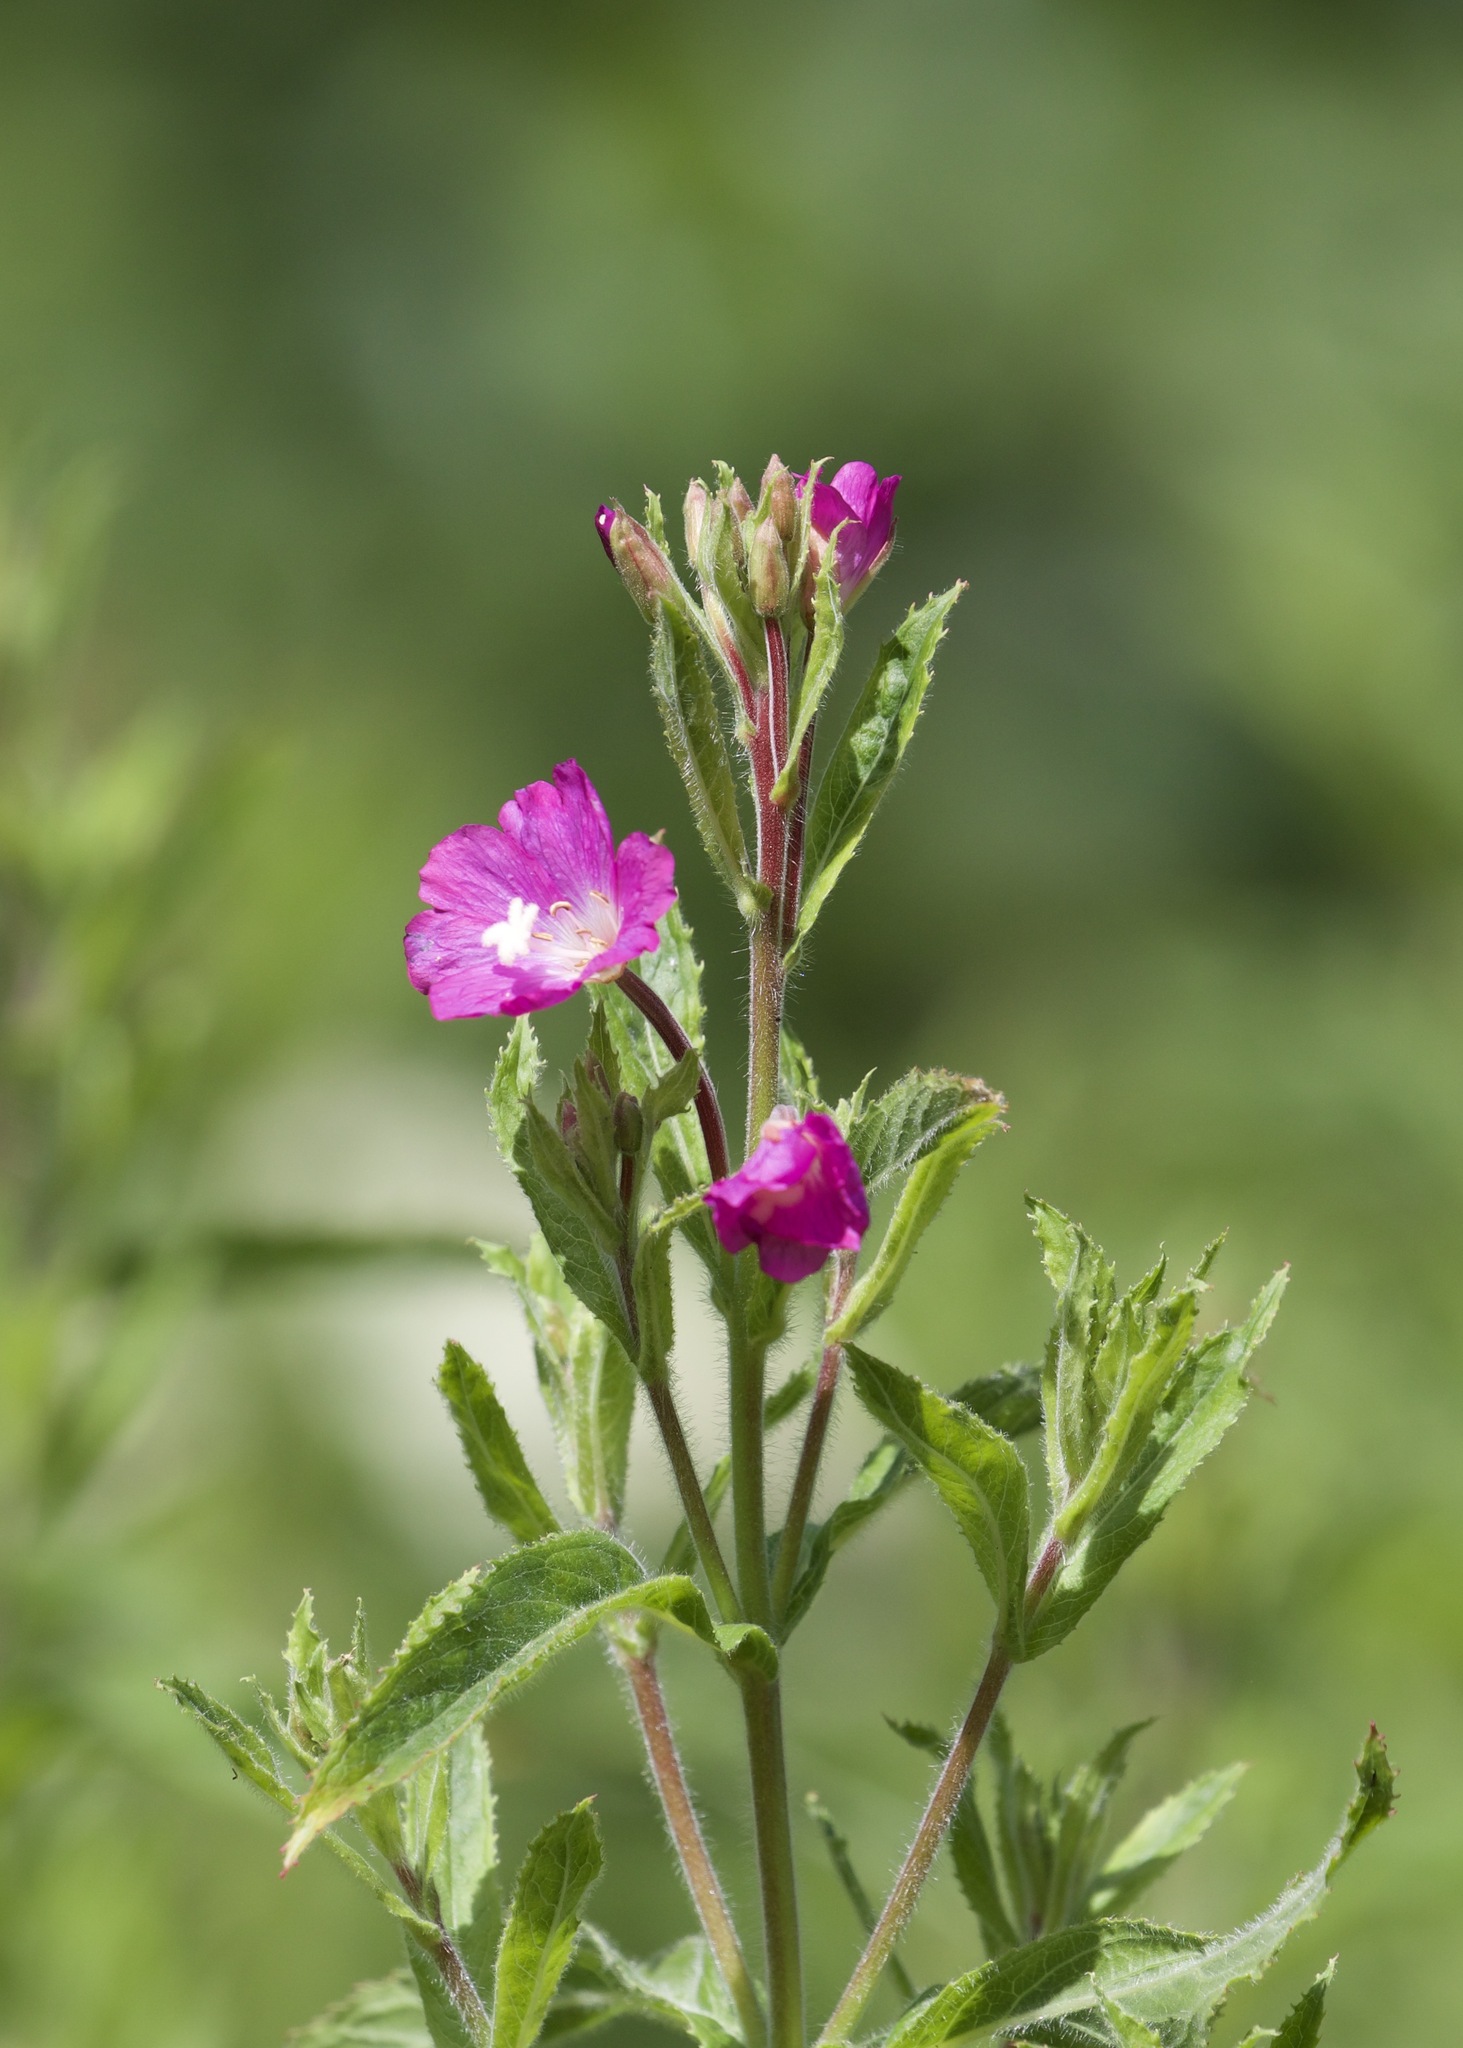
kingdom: Plantae
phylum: Tracheophyta
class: Magnoliopsida
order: Myrtales
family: Onagraceae
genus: Epilobium
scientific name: Epilobium hirsutum
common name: Great willowherb
